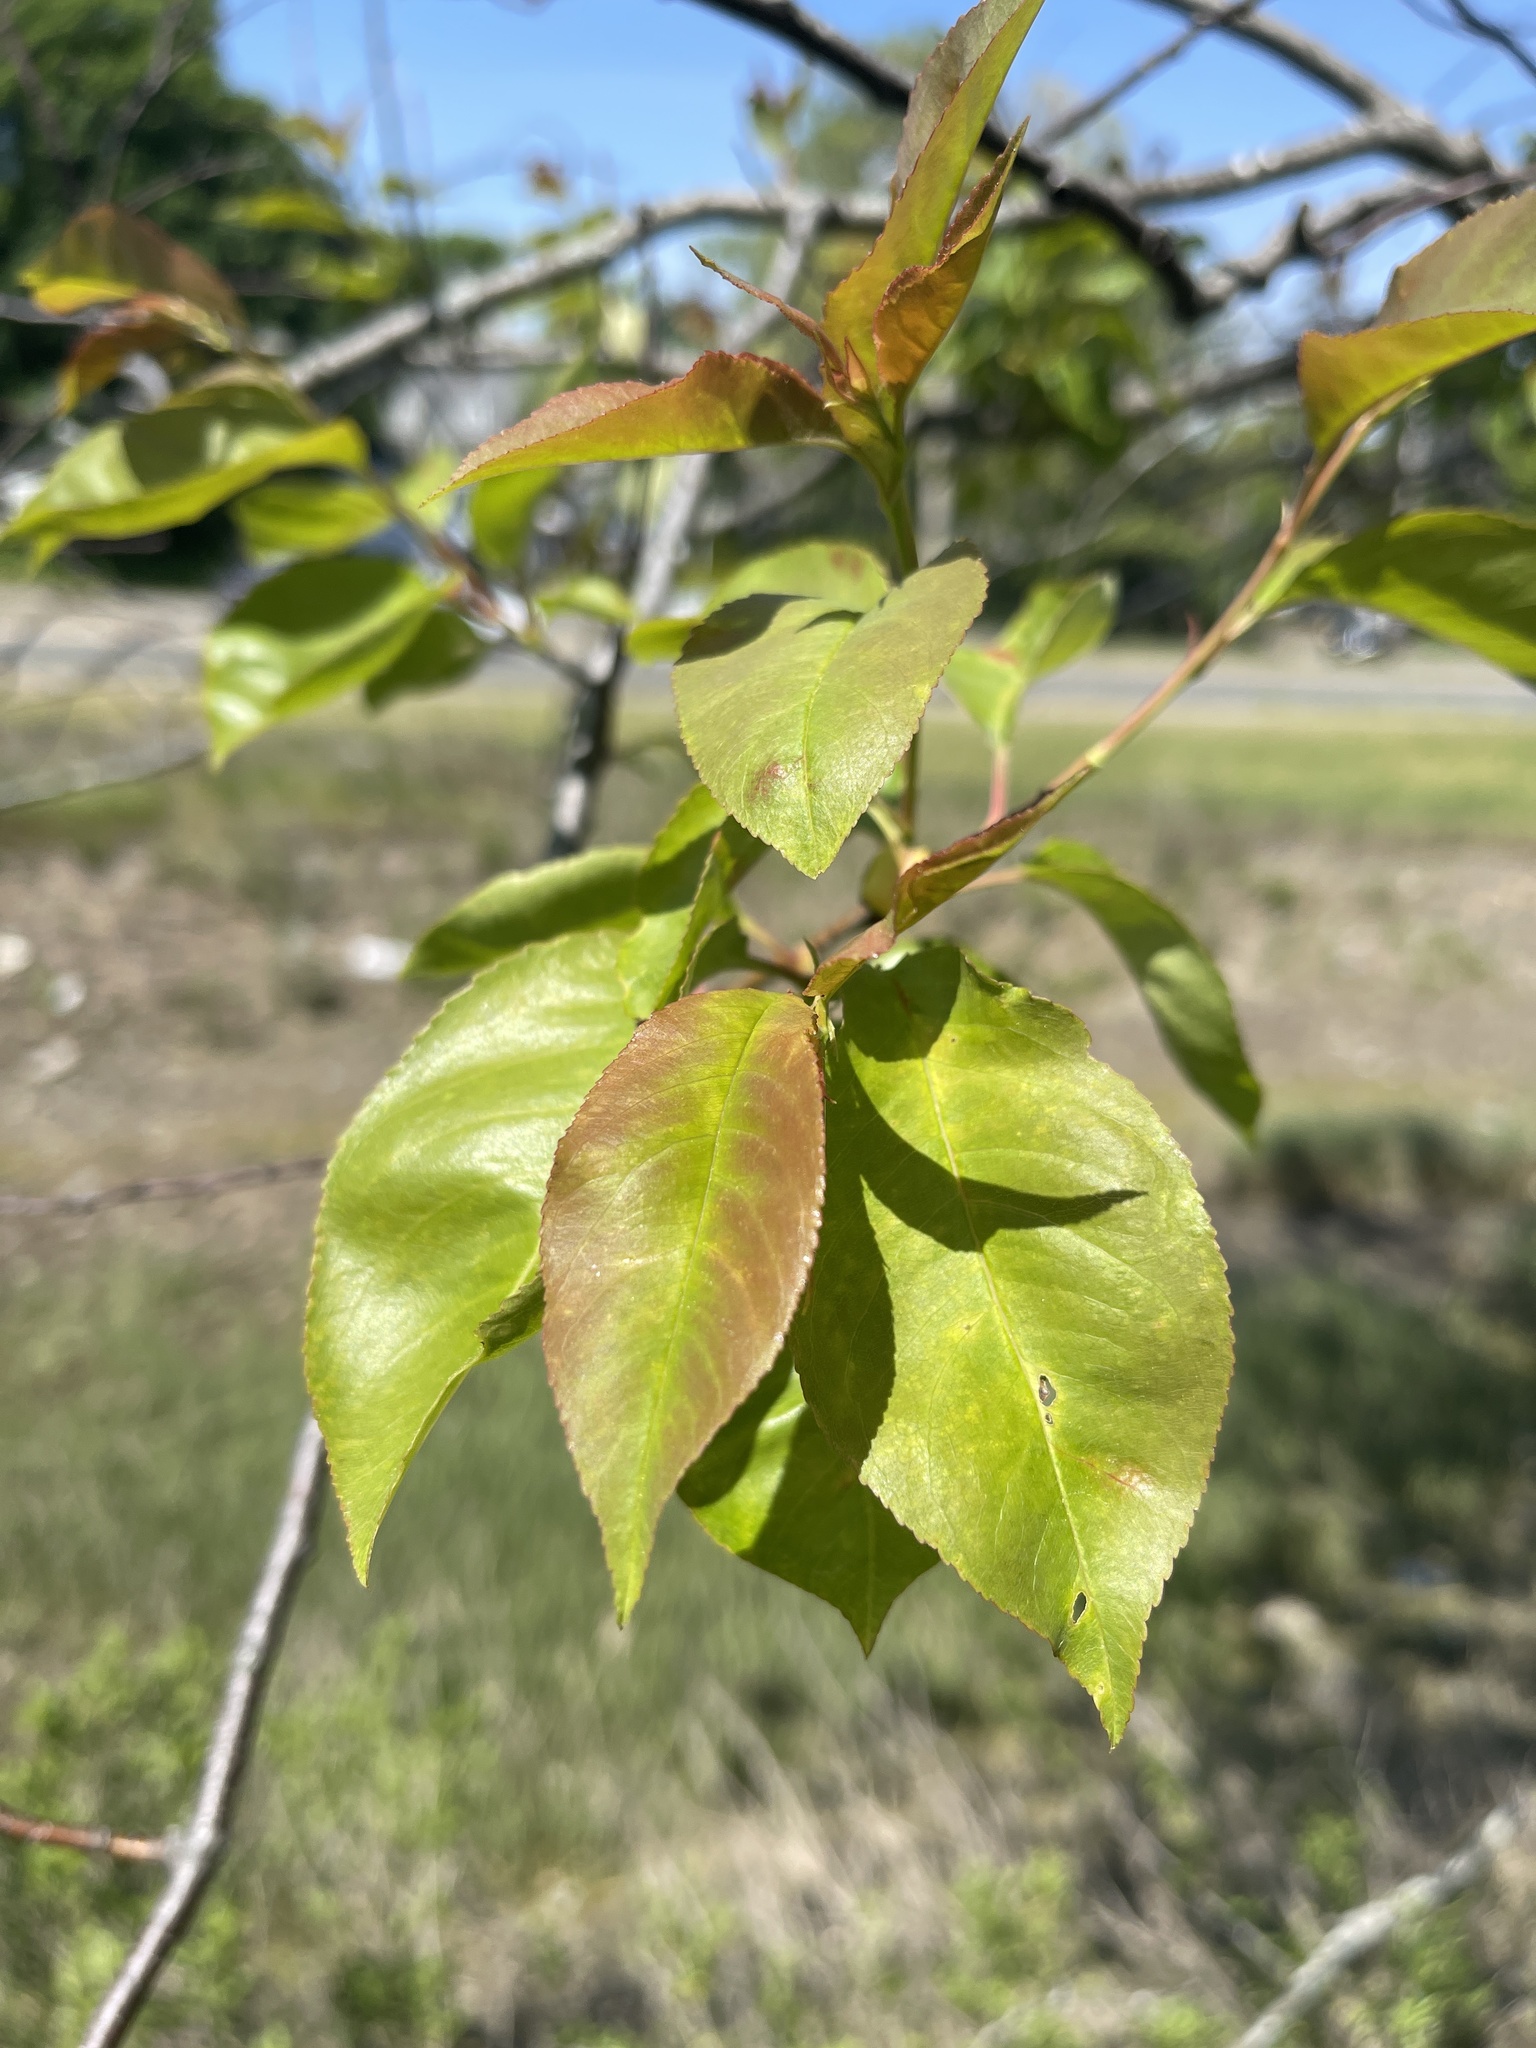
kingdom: Plantae
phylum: Tracheophyta
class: Magnoliopsida
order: Rosales
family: Rosaceae
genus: Prunus
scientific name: Prunus serotina
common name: Black cherry
